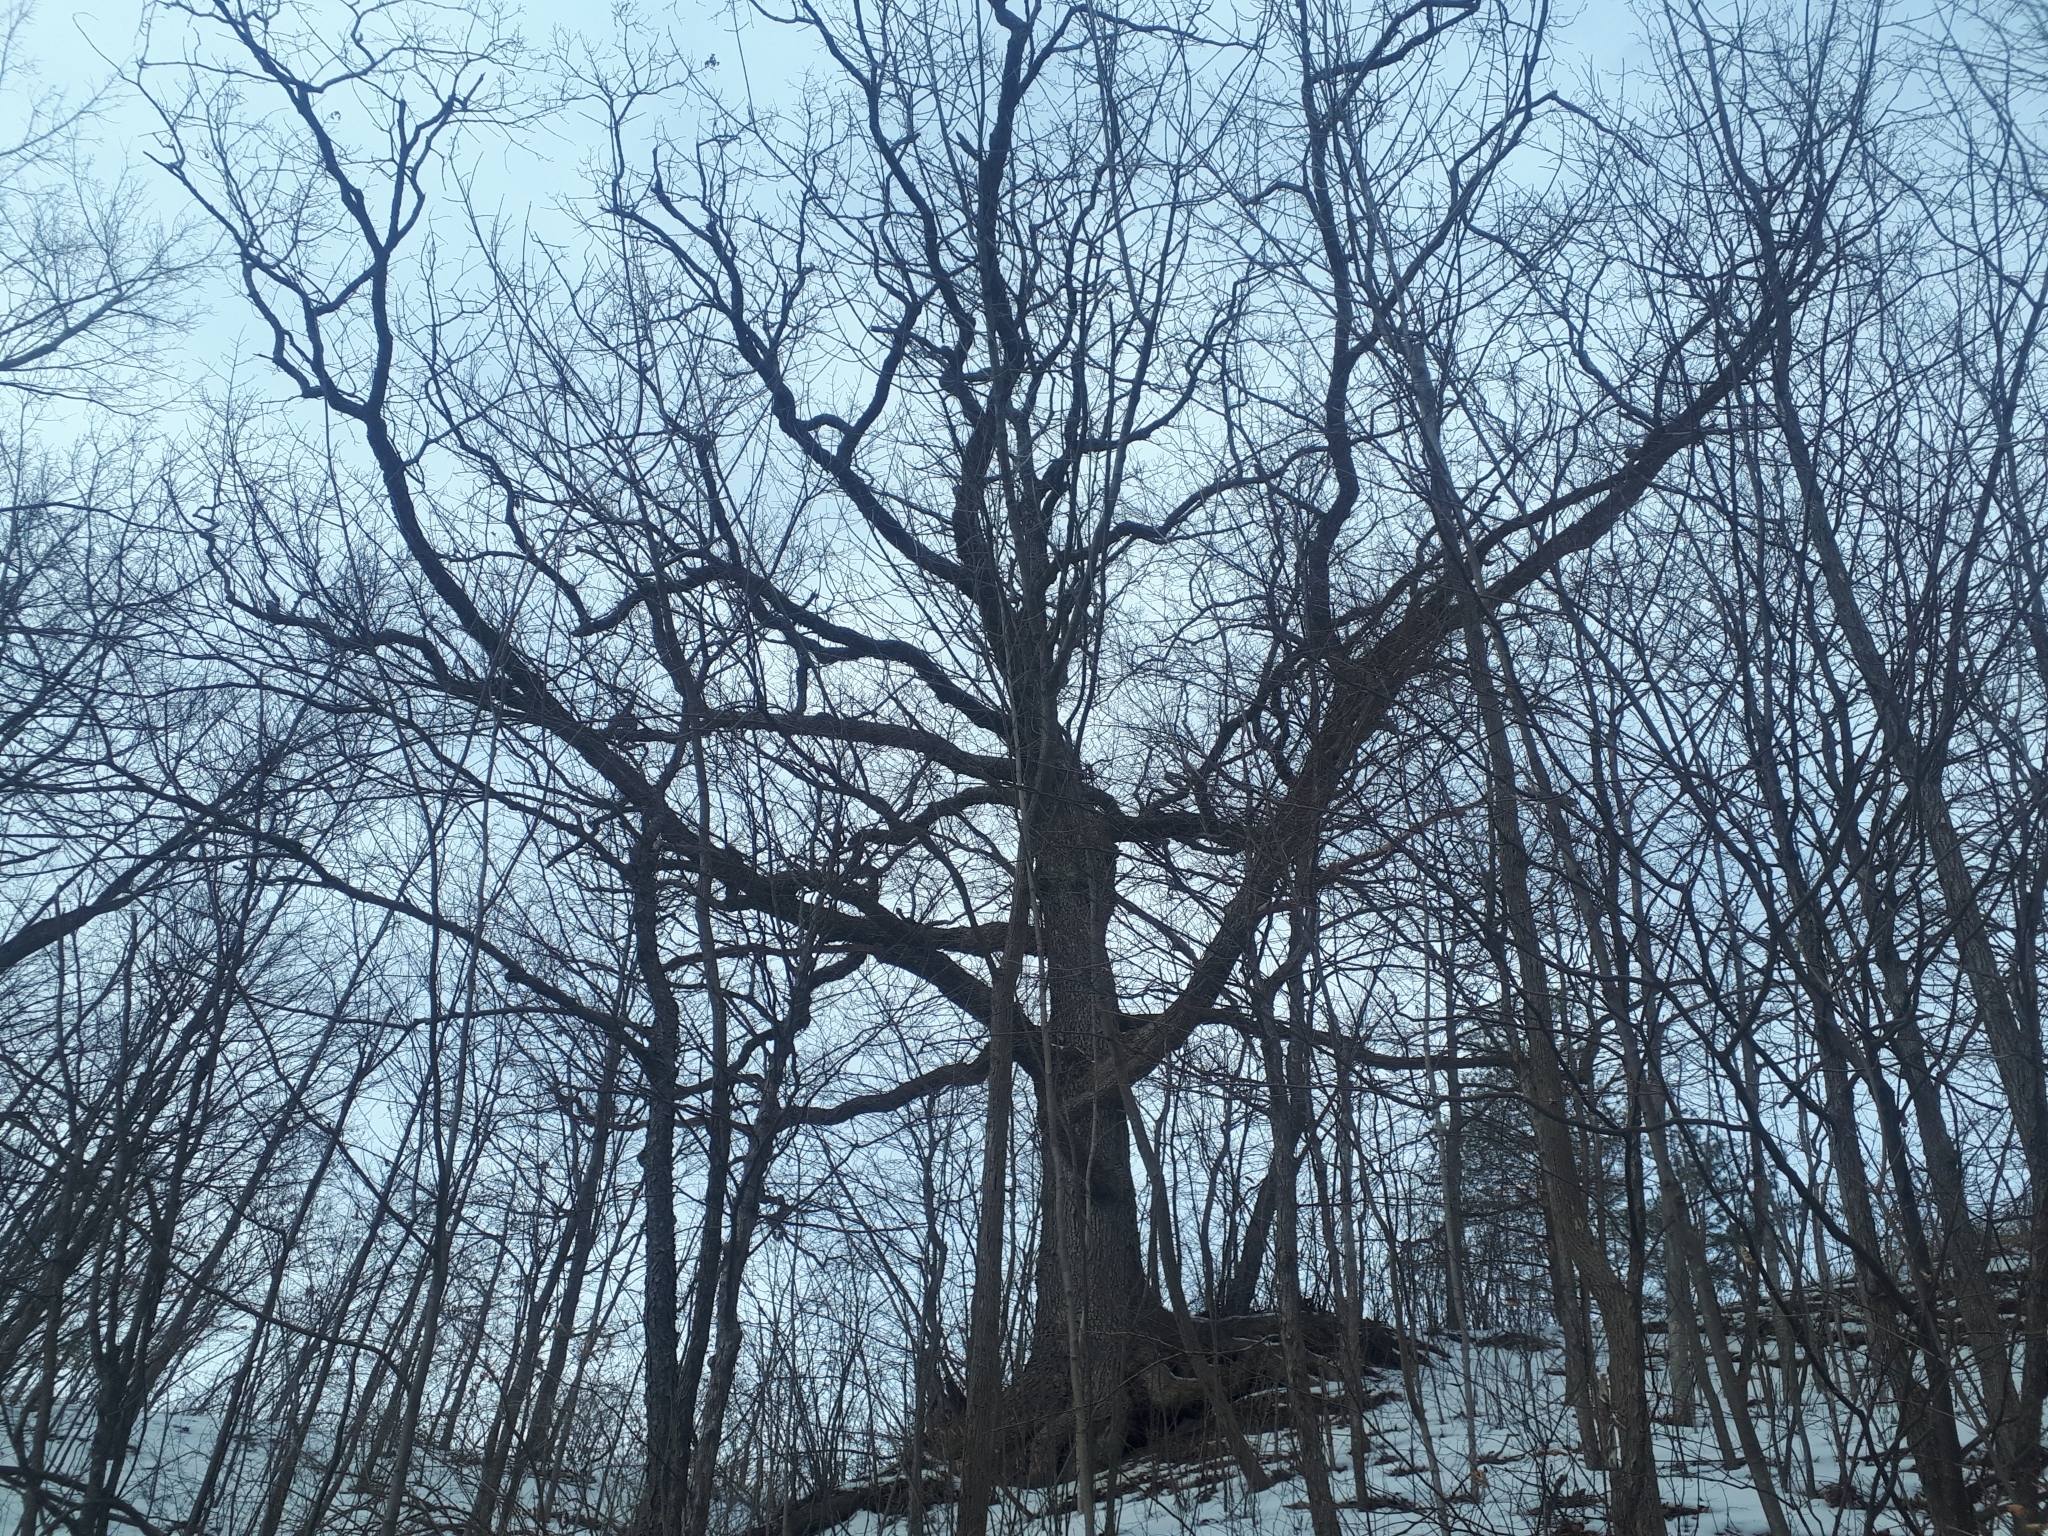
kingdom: Plantae
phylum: Tracheophyta
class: Magnoliopsida
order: Fagales
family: Fagaceae
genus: Quercus
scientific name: Quercus alba
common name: White oak
